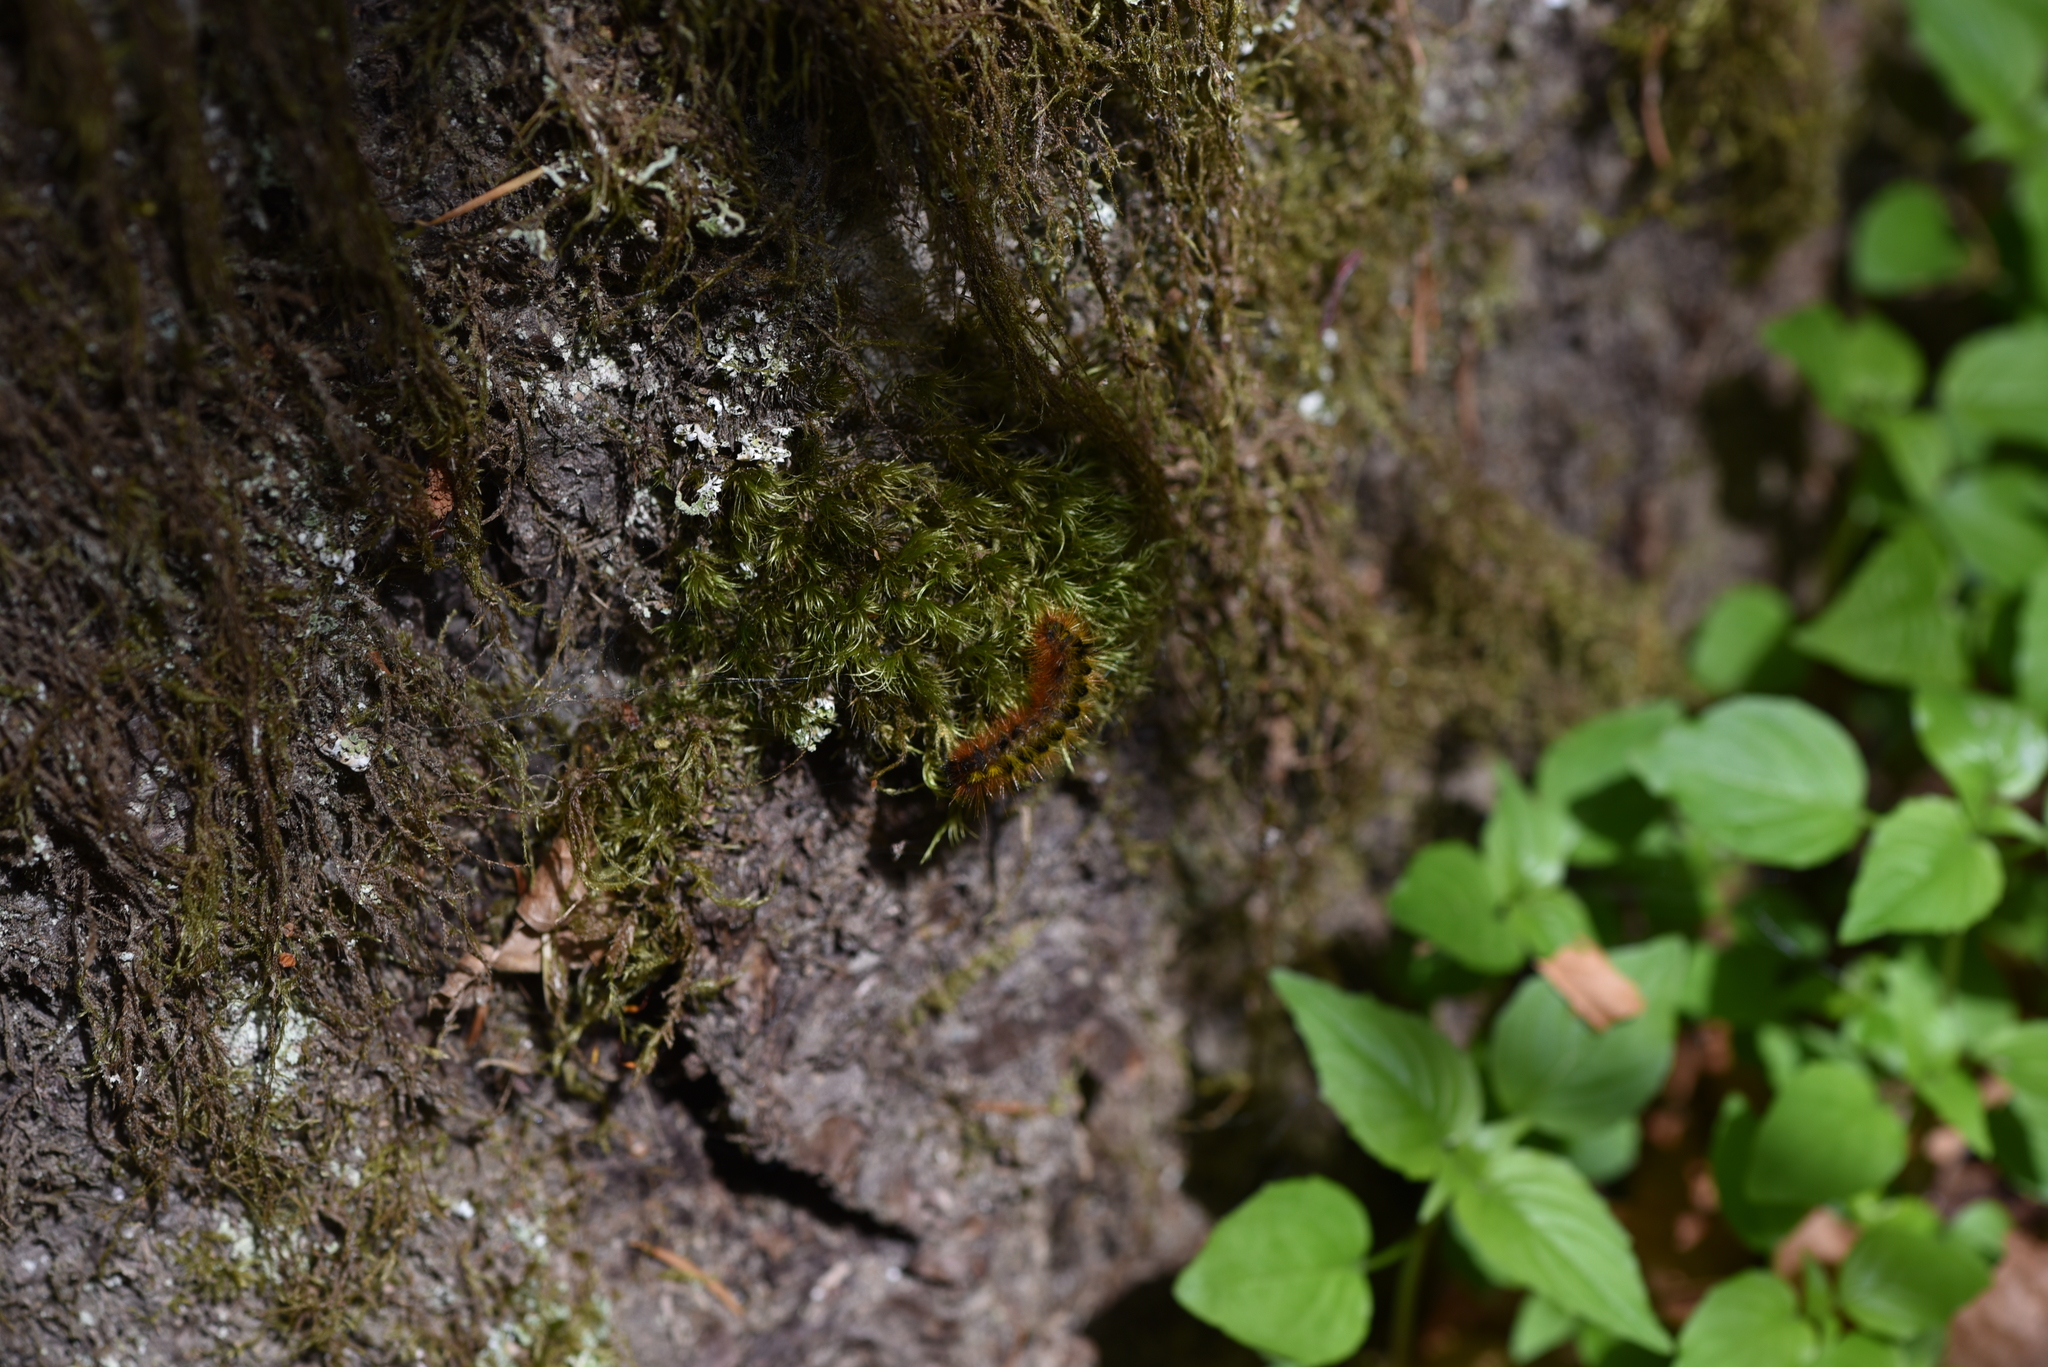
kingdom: Animalia
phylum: Arthropoda
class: Insecta
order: Lepidoptera
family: Erebidae
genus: Lophocampa
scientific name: Lophocampa argentata
